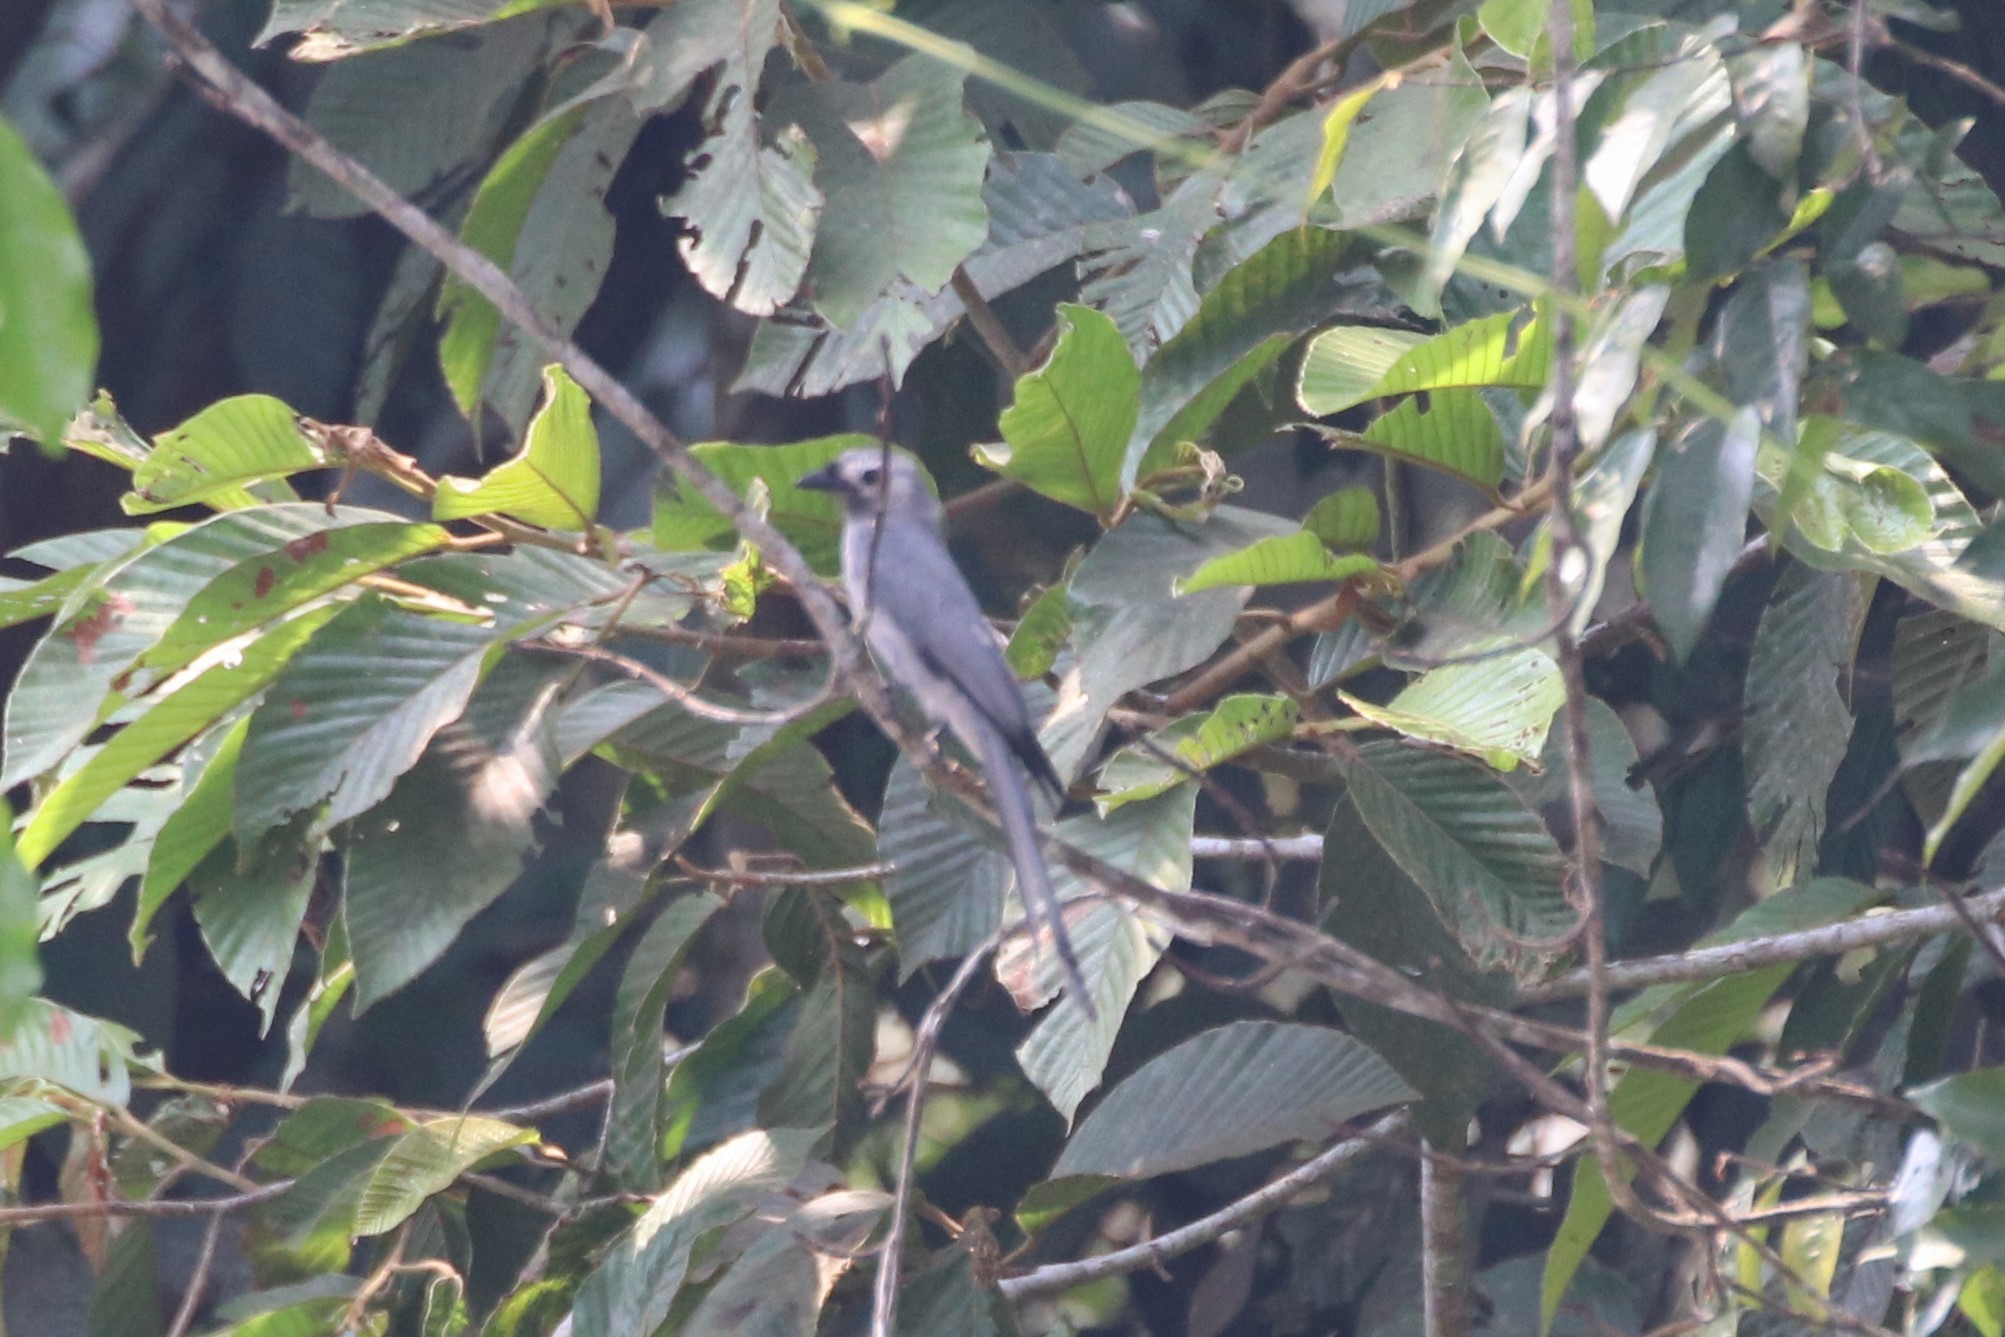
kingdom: Animalia
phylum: Chordata
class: Aves
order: Passeriformes
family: Dicruridae
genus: Dicrurus
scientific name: Dicrurus leucophaeus
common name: Ashy drongo
